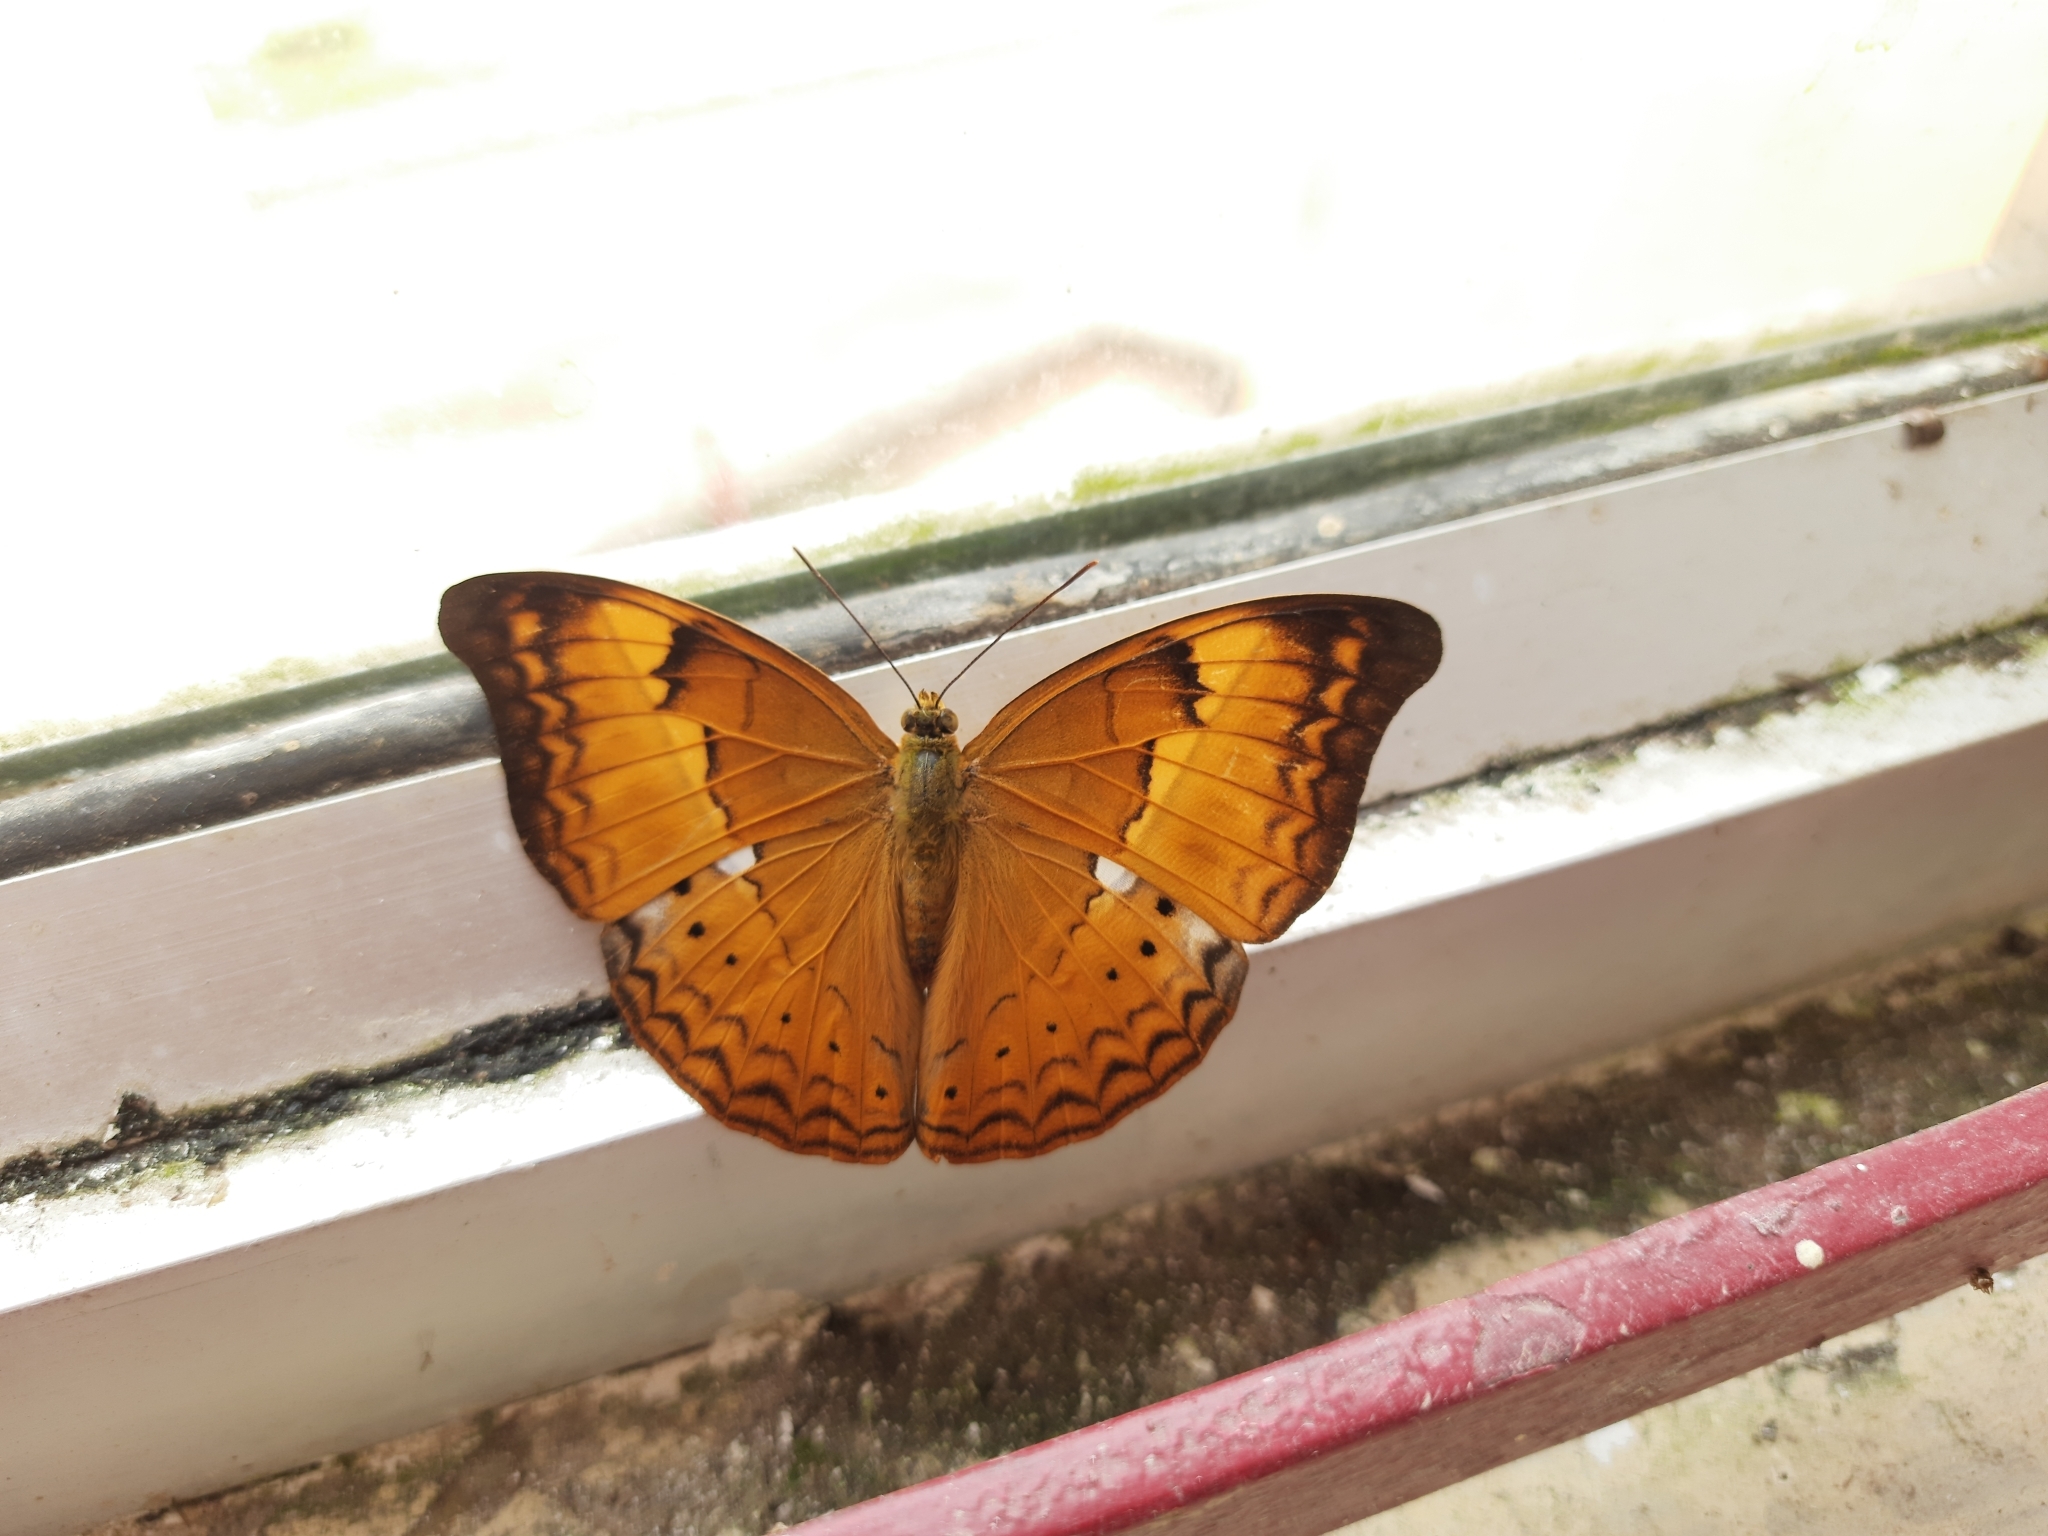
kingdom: Animalia
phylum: Arthropoda
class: Insecta
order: Lepidoptera
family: Nymphalidae
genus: Cirrochroa
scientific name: Cirrochroa thais
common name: Tamil yeoman
